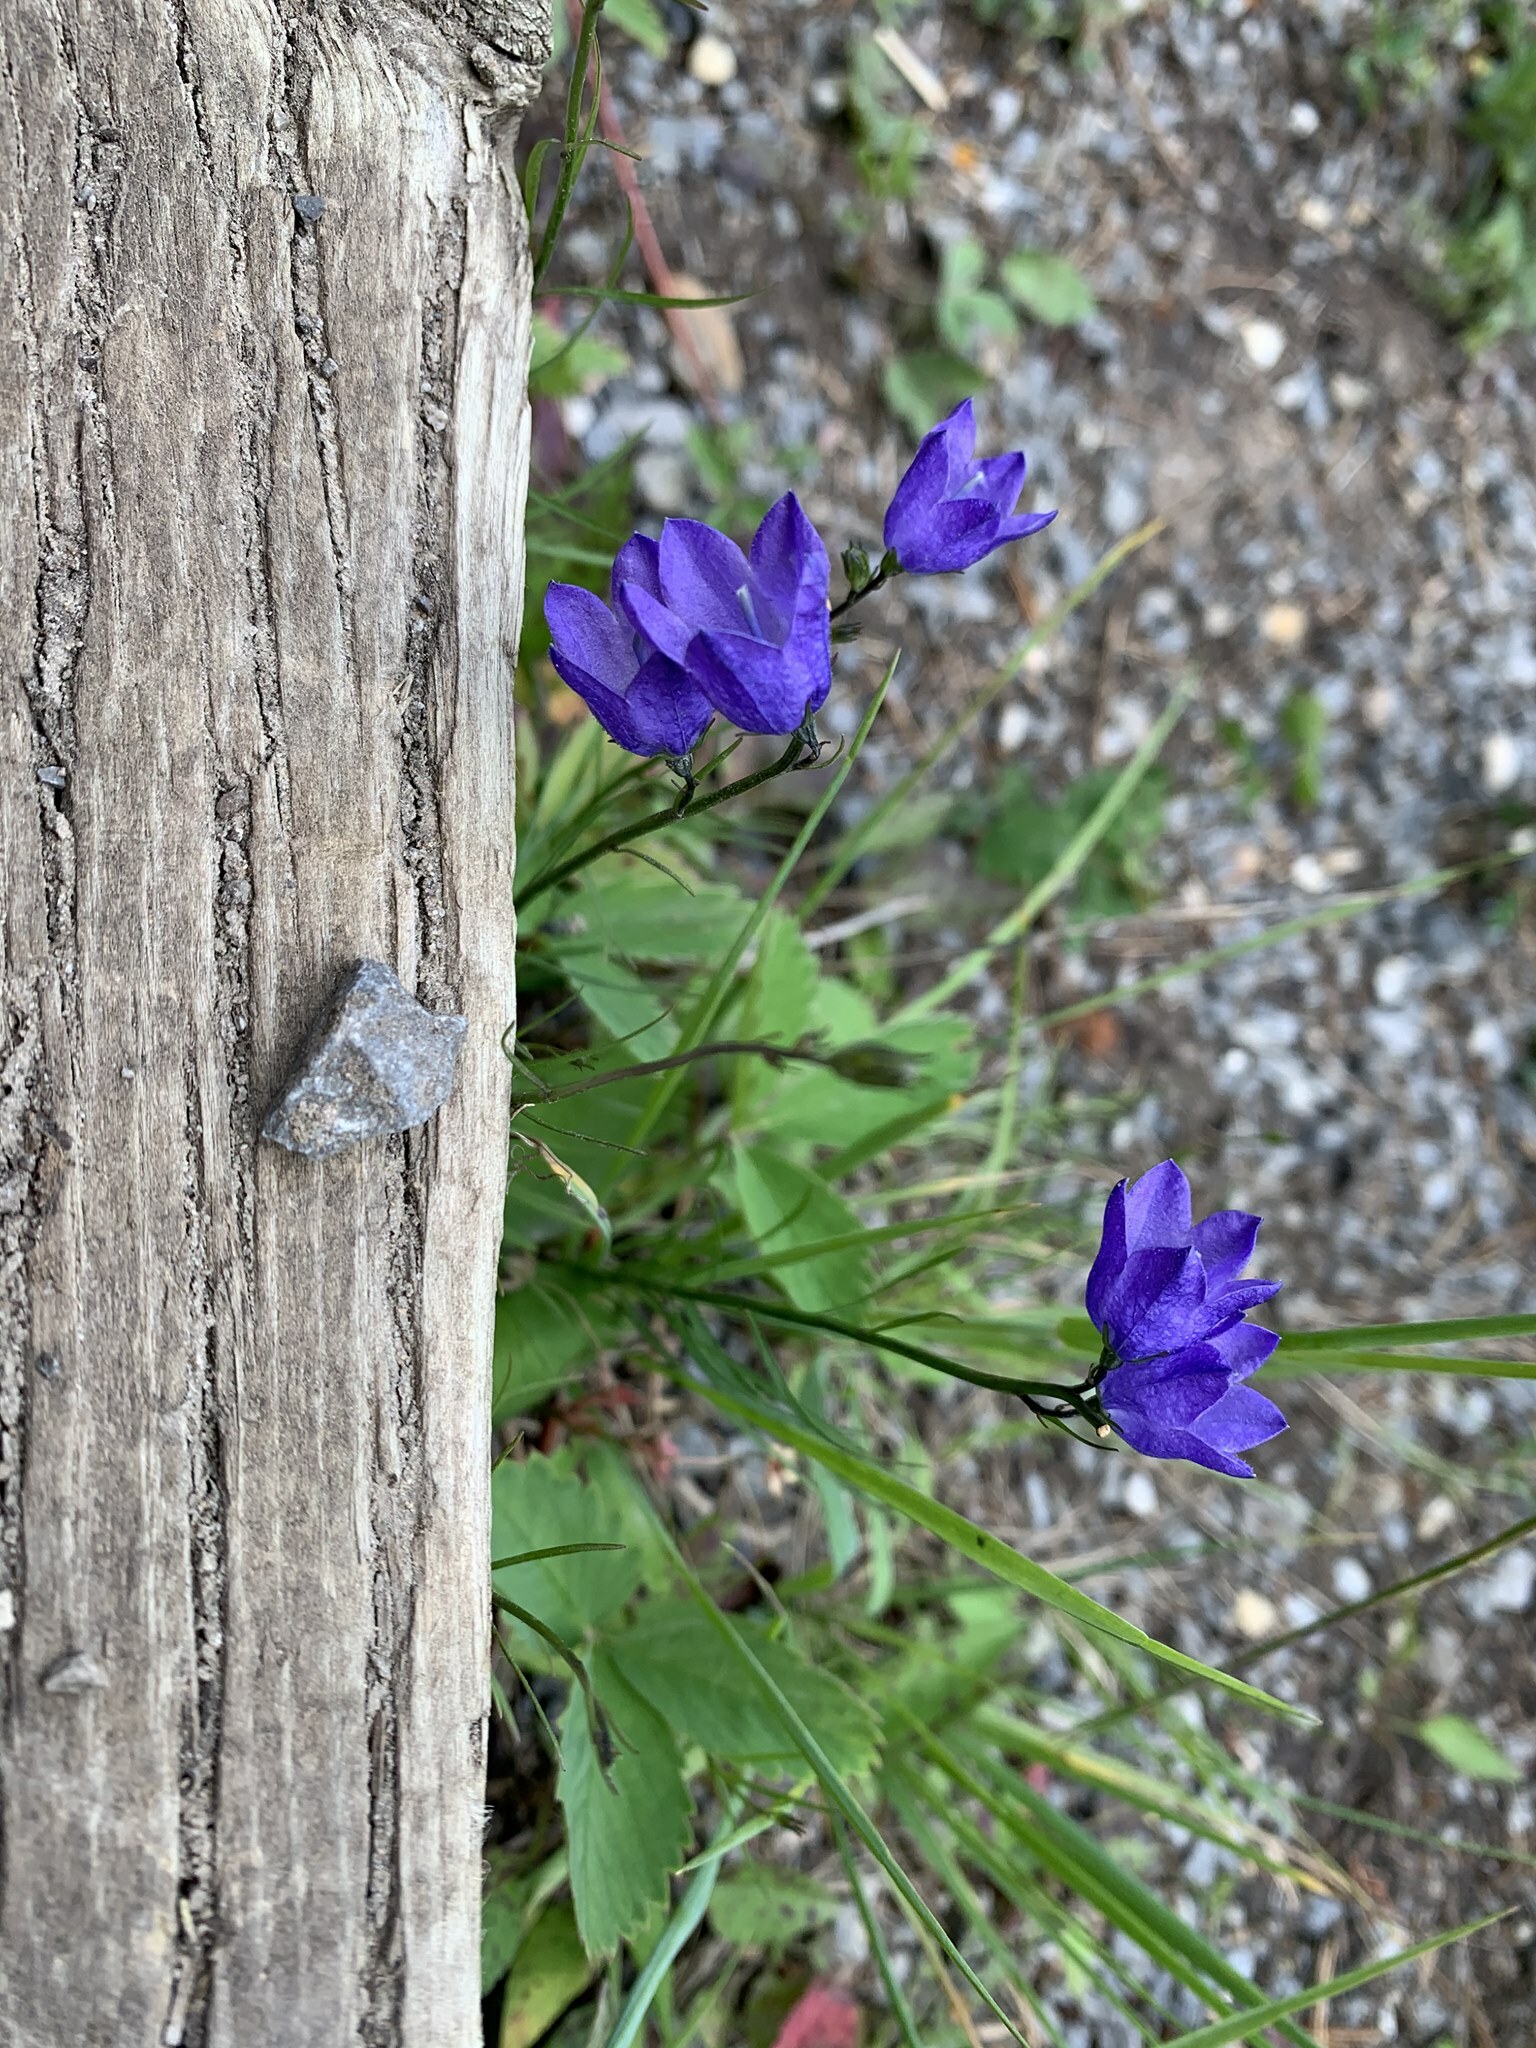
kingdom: Plantae
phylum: Tracheophyta
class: Magnoliopsida
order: Asterales
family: Campanulaceae
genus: Campanula
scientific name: Campanula alaskana
